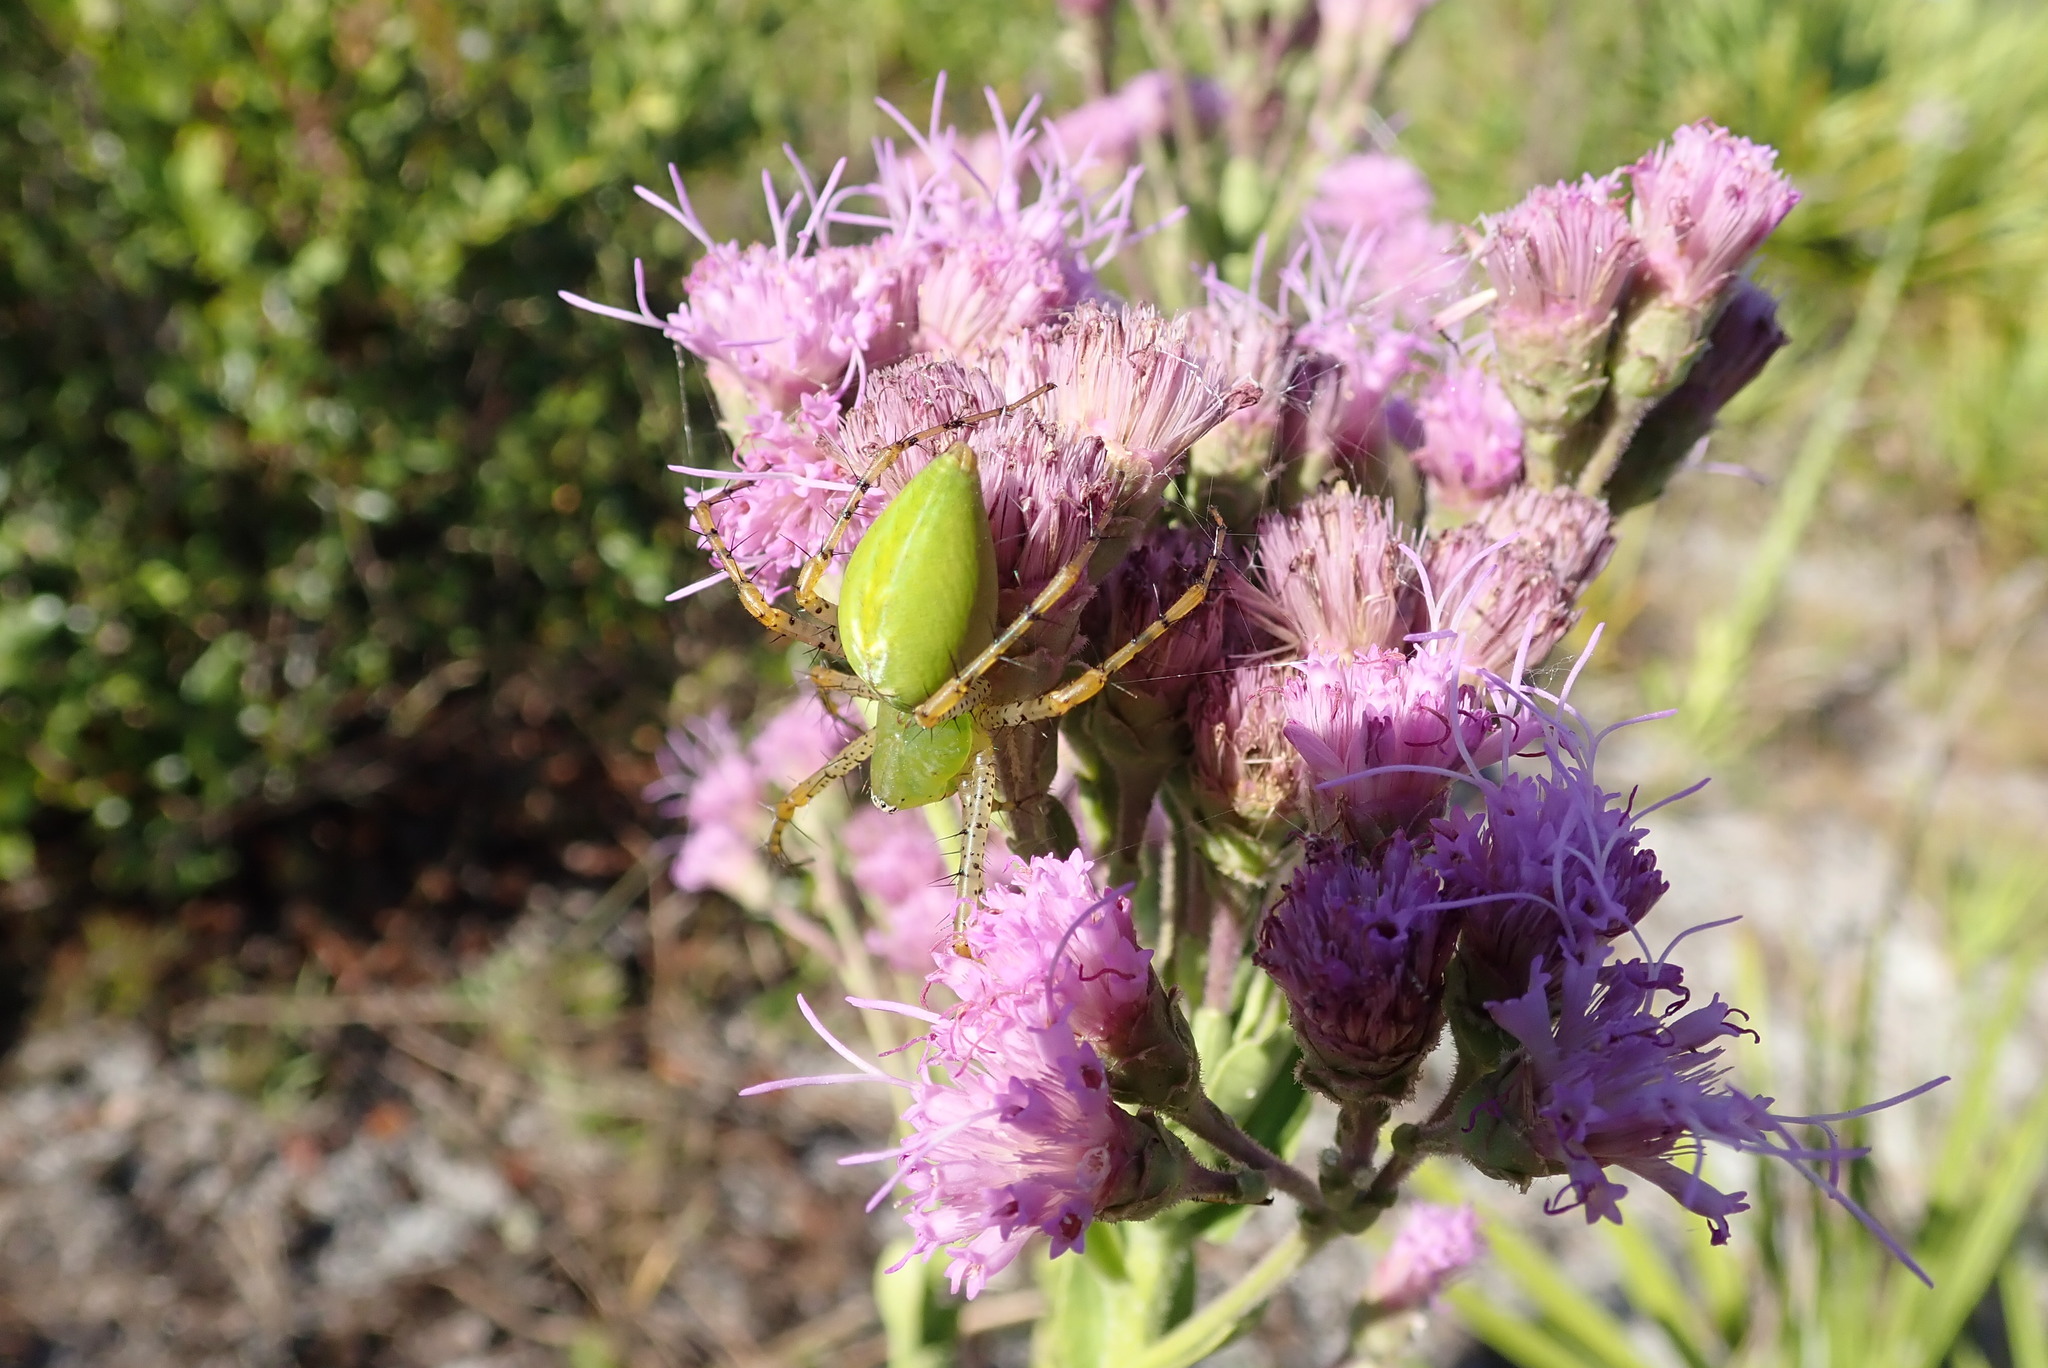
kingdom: Animalia
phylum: Arthropoda
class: Arachnida
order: Araneae
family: Oxyopidae
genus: Peucetia
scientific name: Peucetia viridans
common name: Lynx spiders
